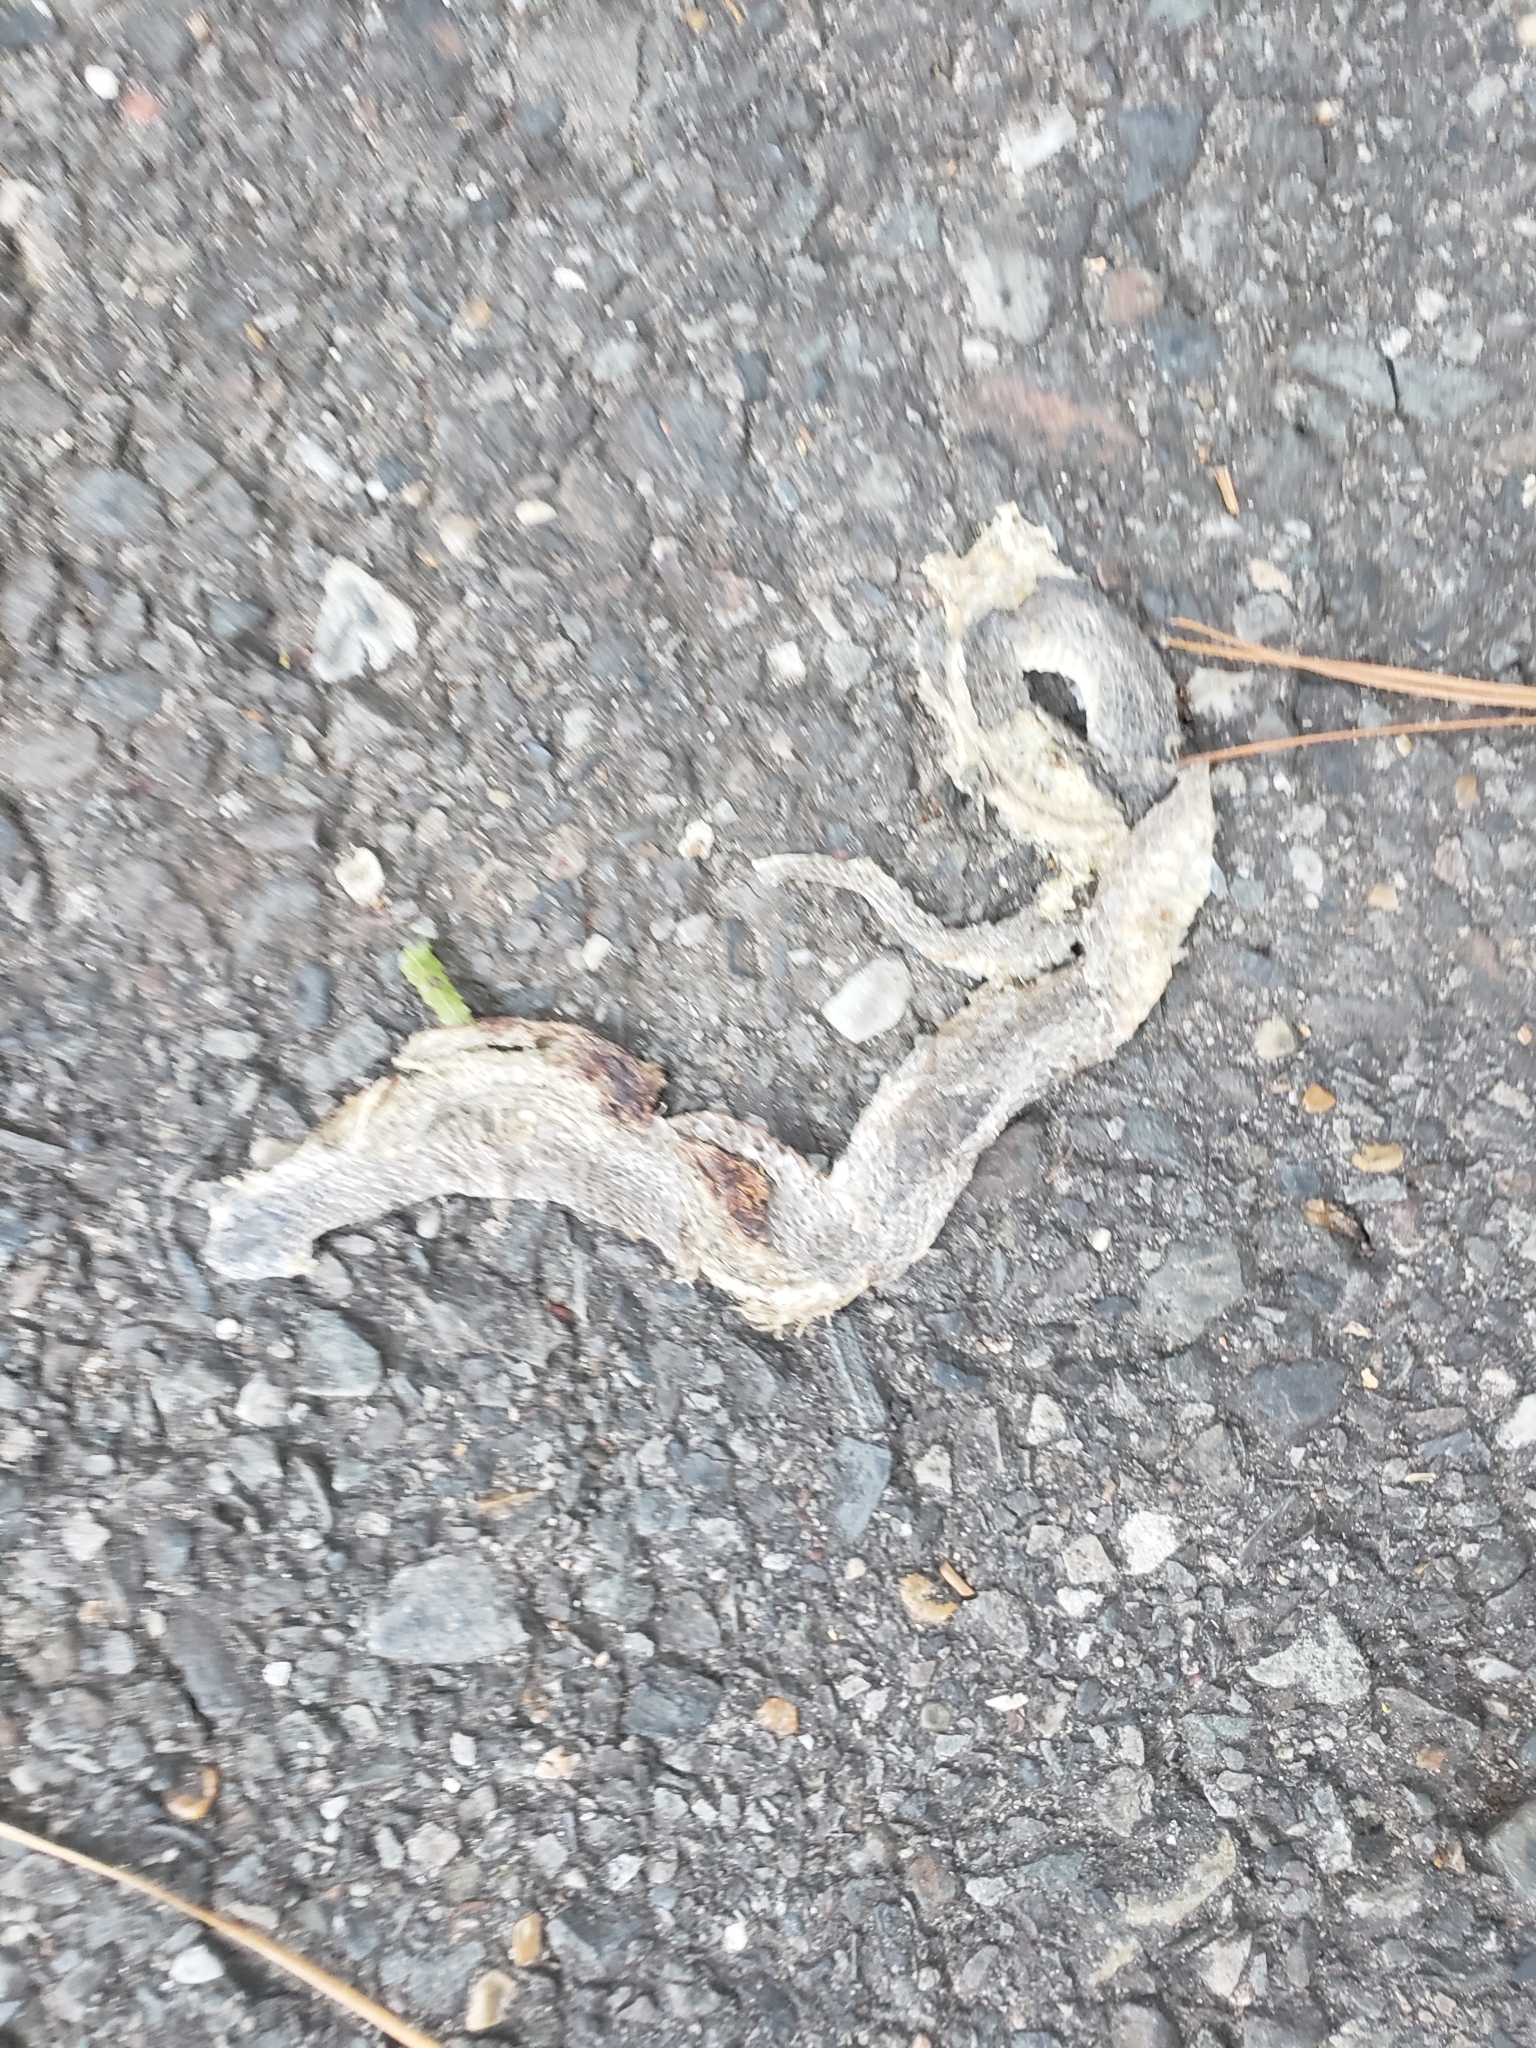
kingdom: Animalia
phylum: Chordata
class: Squamata
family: Colubridae
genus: Storeria
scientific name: Storeria dekayi
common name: (dekay’s) brown snake
